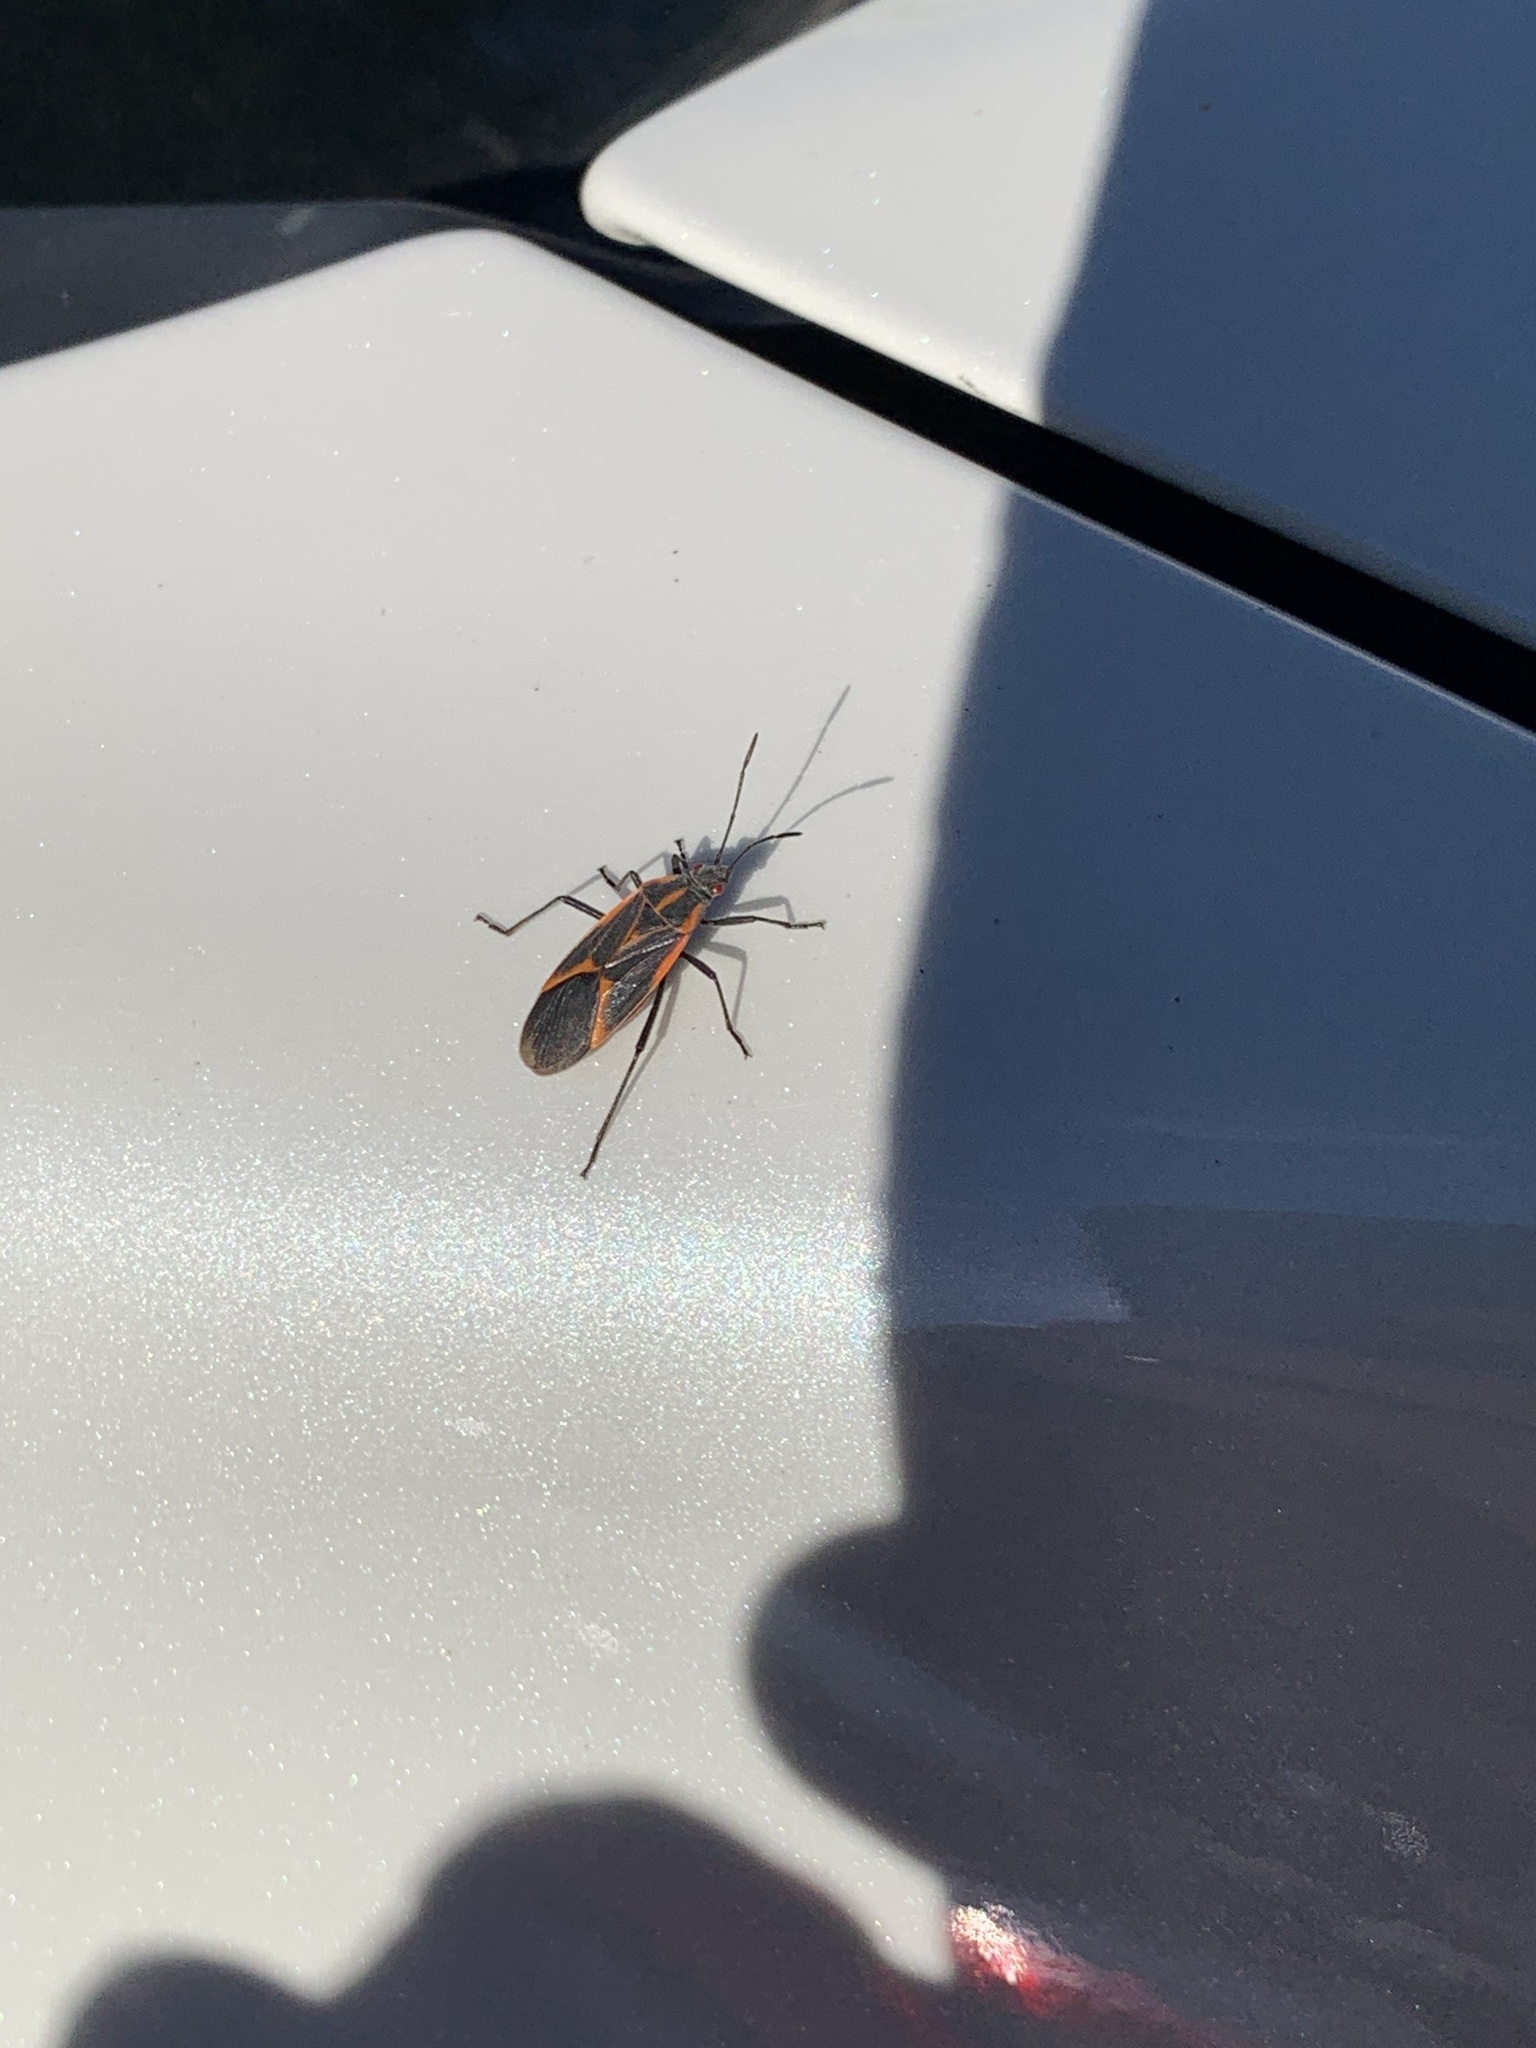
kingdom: Animalia
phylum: Arthropoda
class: Insecta
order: Hemiptera
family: Rhopalidae
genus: Boisea
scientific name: Boisea trivittata
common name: Boxelder bug
